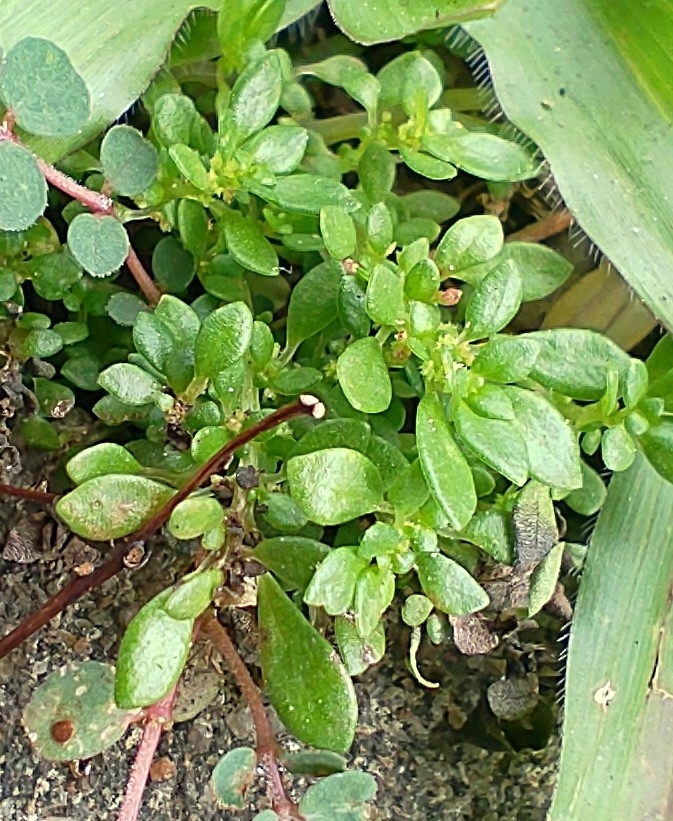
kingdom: Plantae
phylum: Tracheophyta
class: Magnoliopsida
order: Rosales
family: Urticaceae
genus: Pilea
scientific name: Pilea microphylla
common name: Artillery-plant
